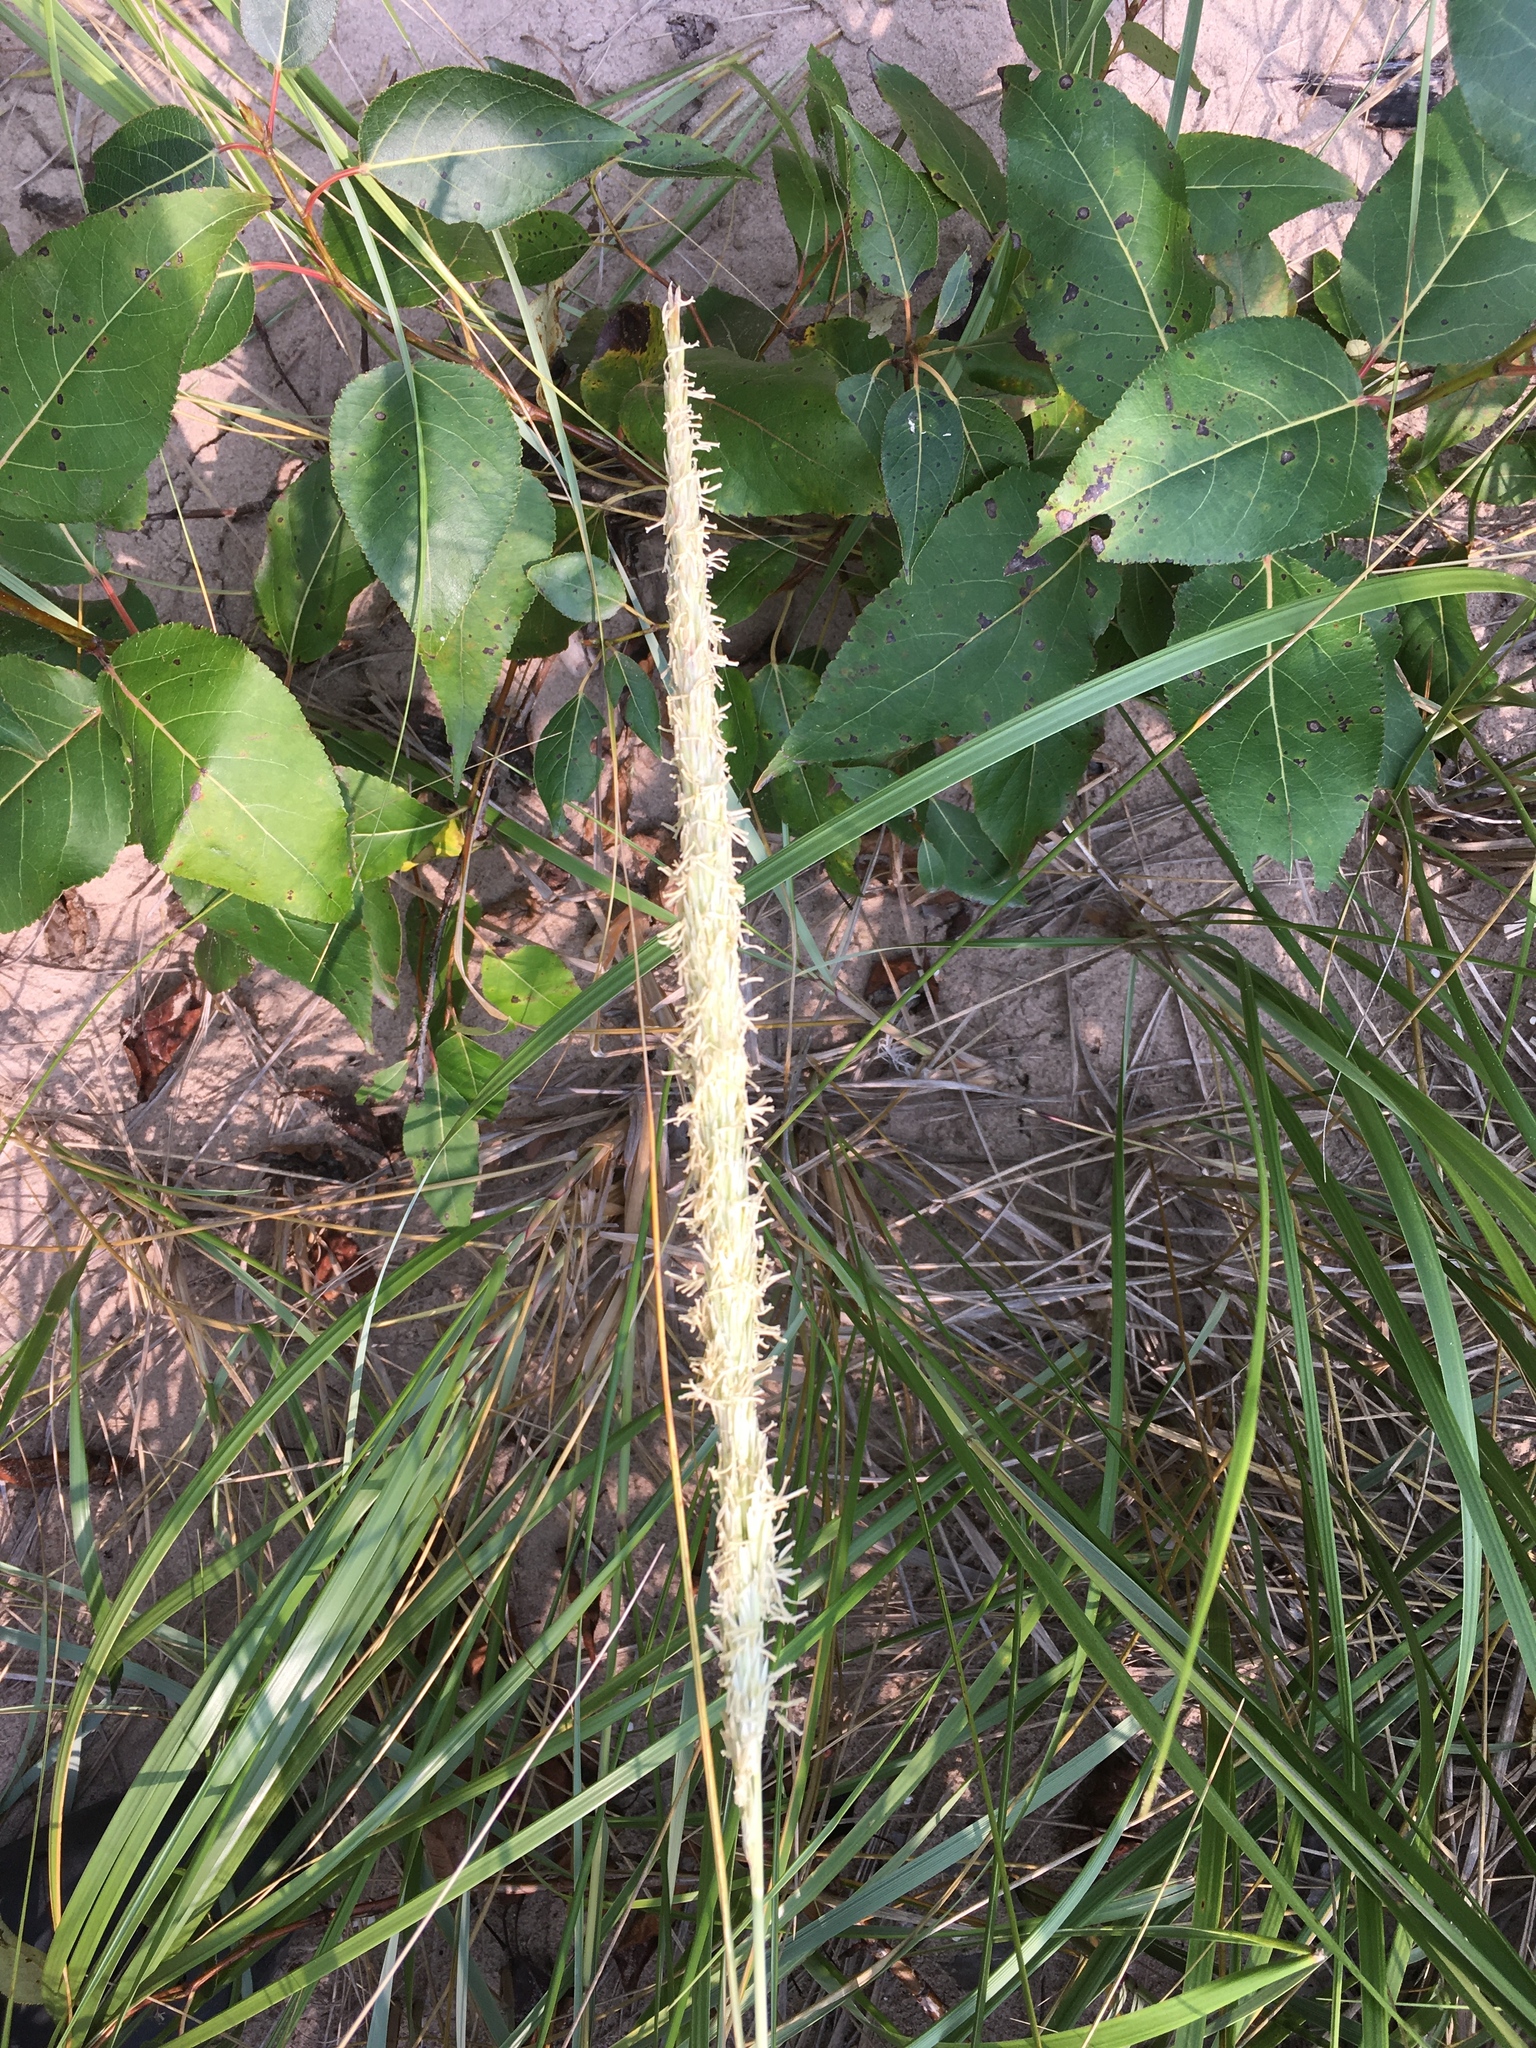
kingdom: Plantae
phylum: Tracheophyta
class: Liliopsida
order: Poales
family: Poaceae
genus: Calamagrostis
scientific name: Calamagrostis breviligulata
